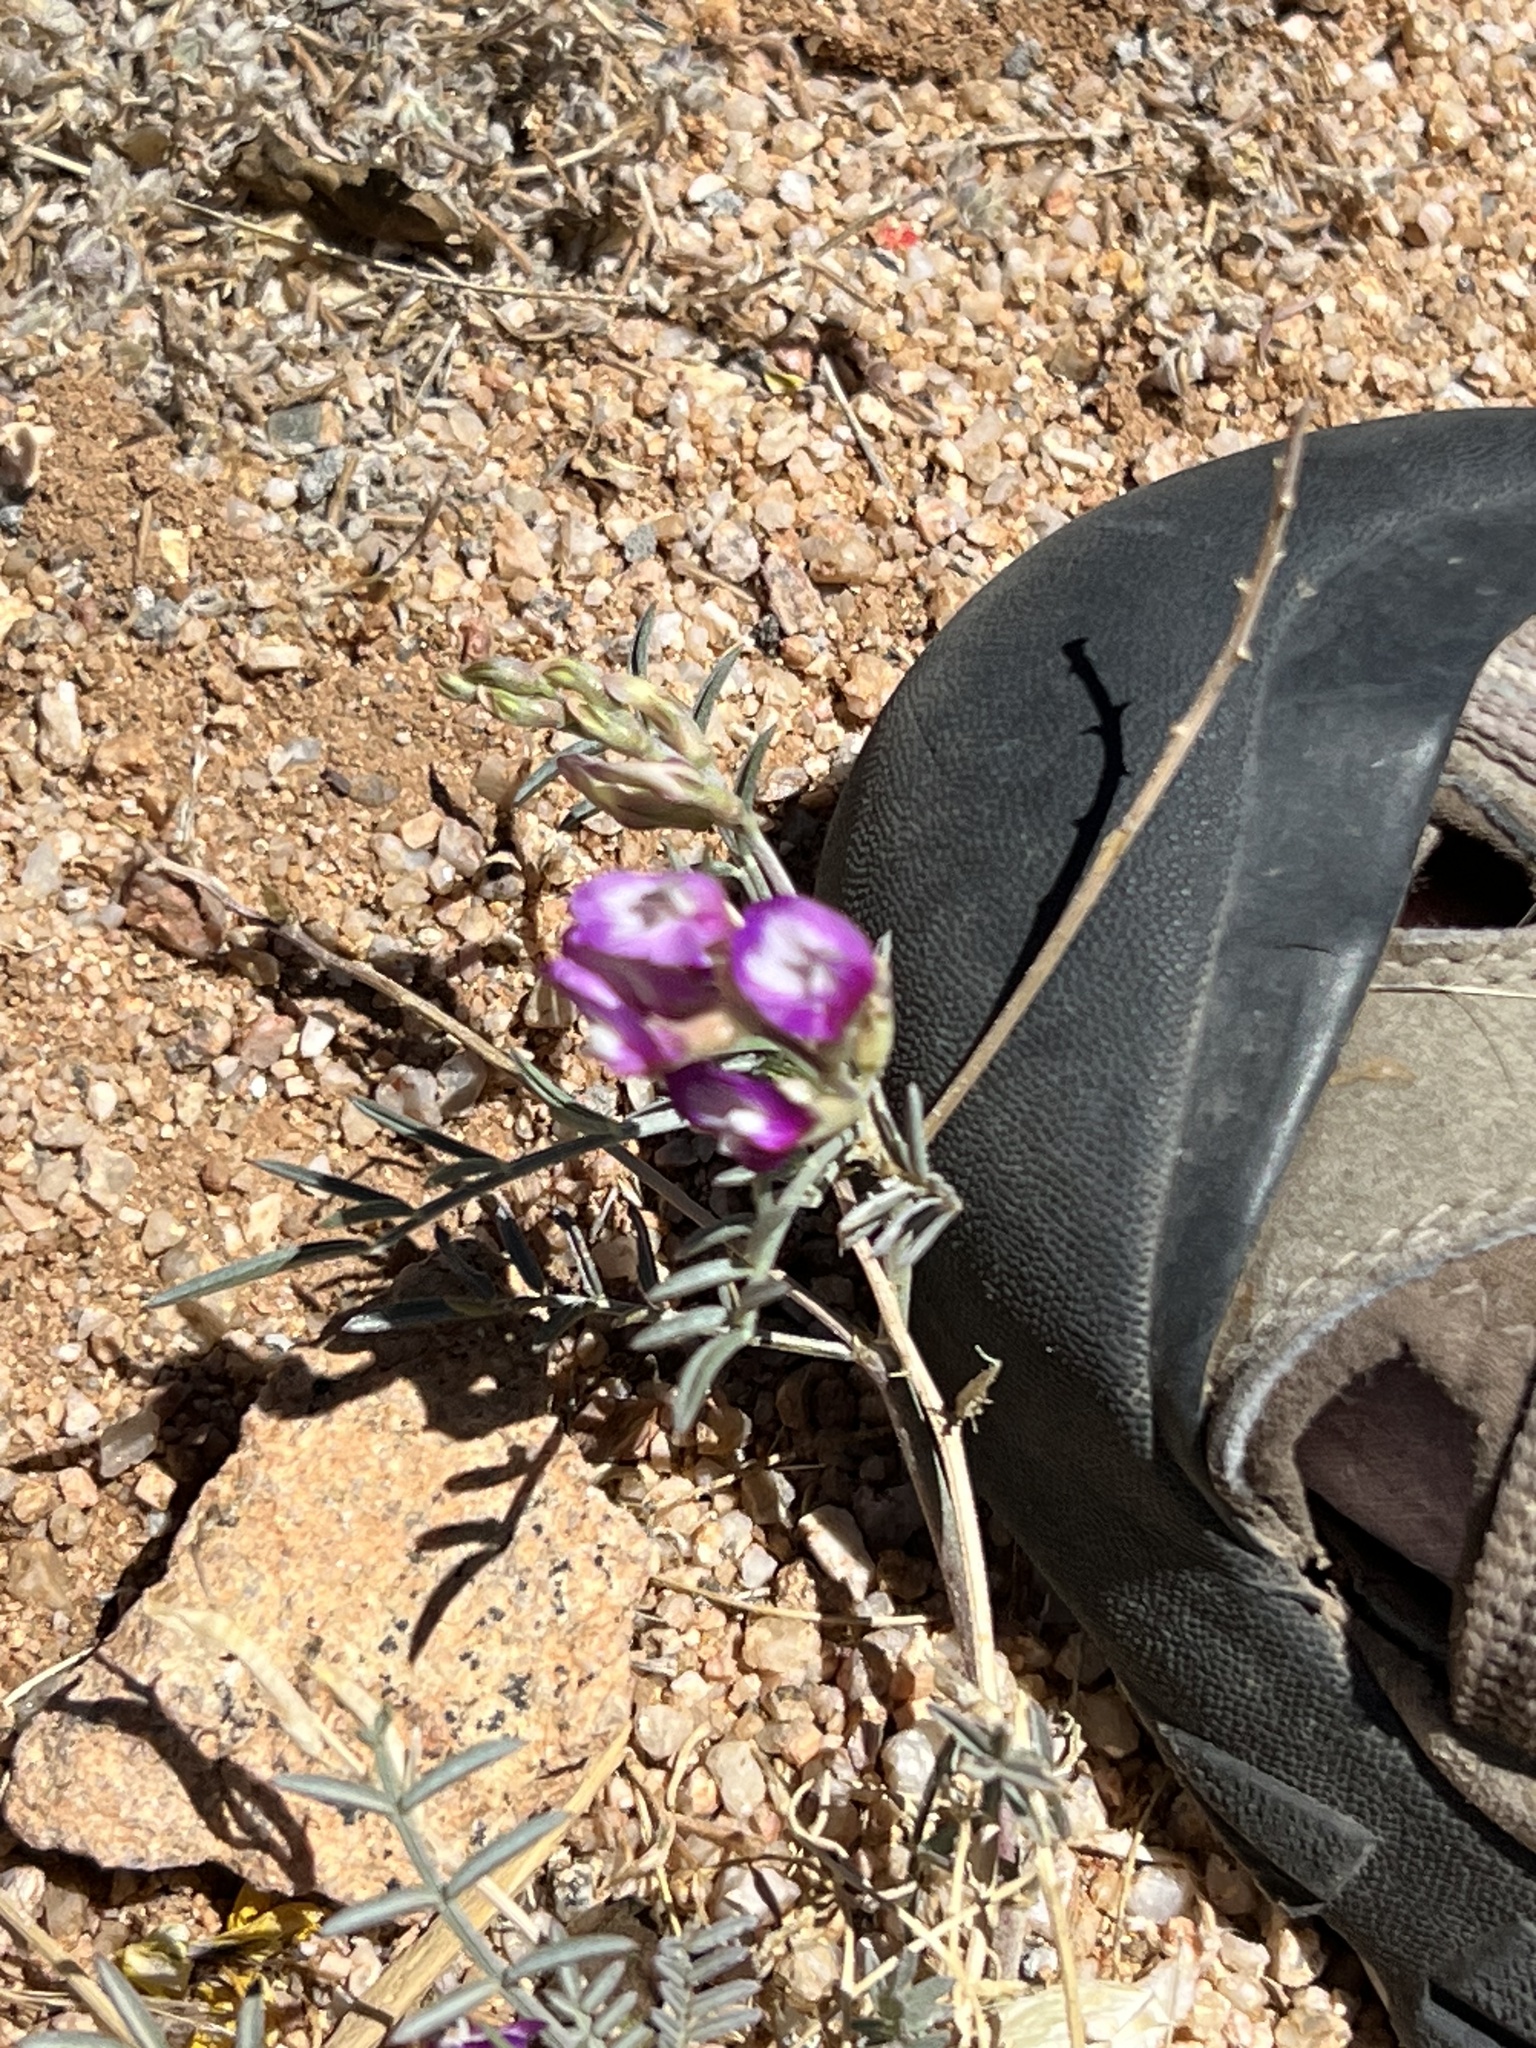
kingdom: Plantae
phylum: Tracheophyta
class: Magnoliopsida
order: Fabales
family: Fabaceae
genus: Astragalus
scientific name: Astragalus arizonicus
